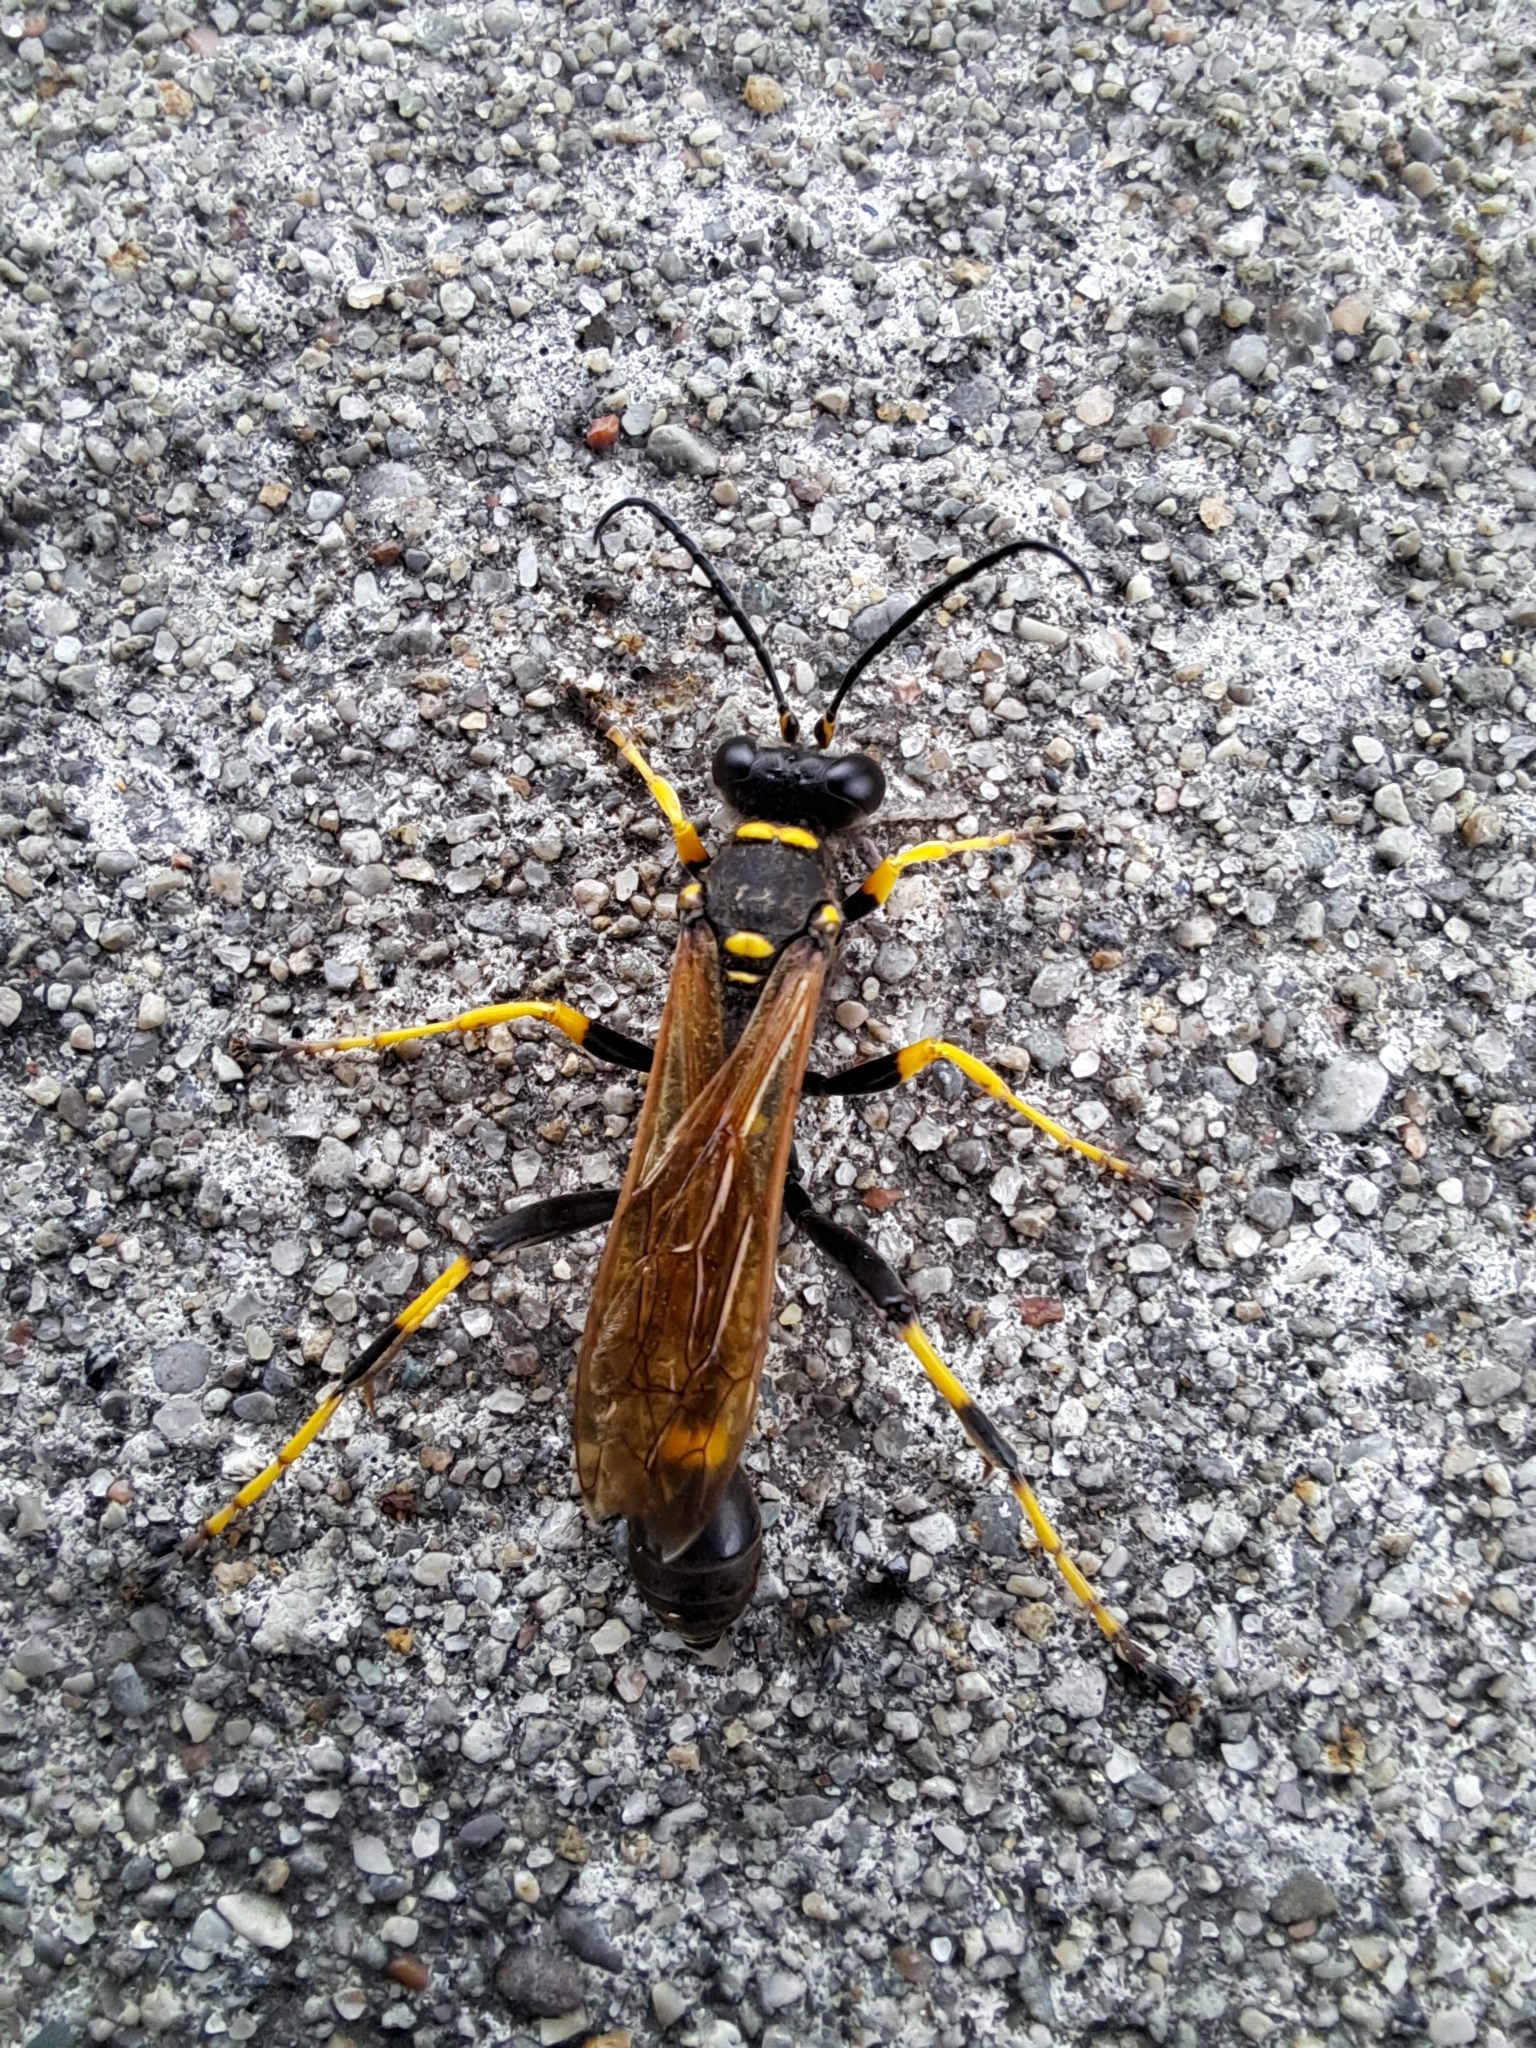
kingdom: Animalia
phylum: Arthropoda
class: Insecta
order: Hymenoptera
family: Sphecidae
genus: Sceliphron
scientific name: Sceliphron caementarium
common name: Mud dauber
